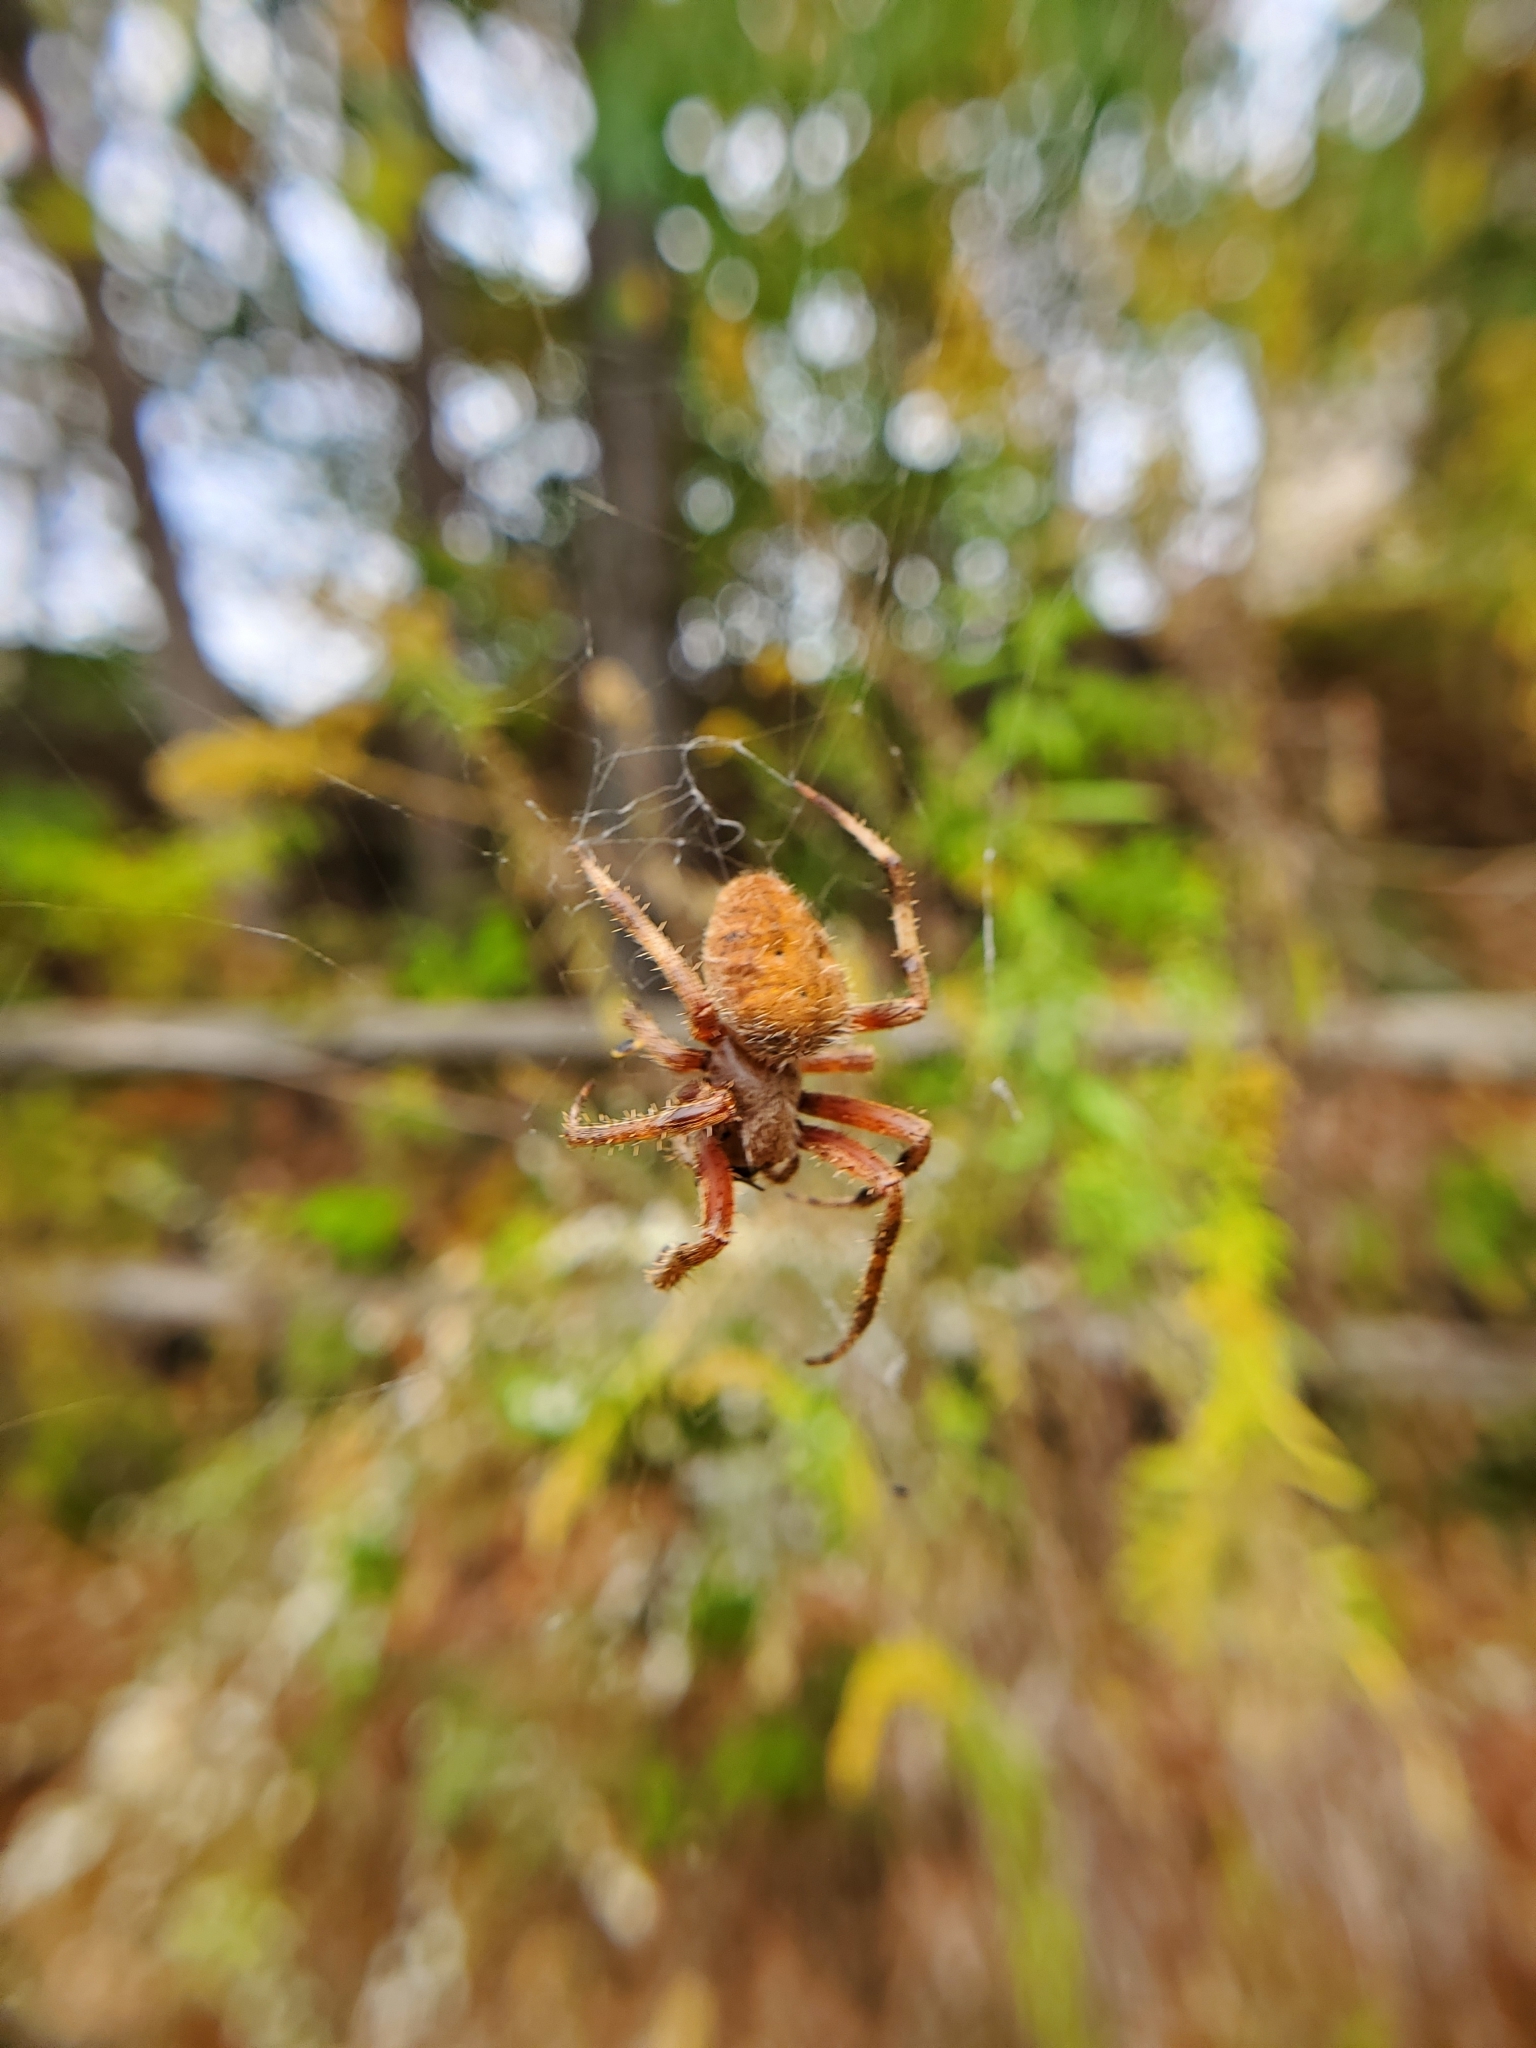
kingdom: Animalia
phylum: Arthropoda
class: Arachnida
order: Araneae
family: Araneidae
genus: Neoscona
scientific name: Neoscona crucifera
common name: Spotted orbweaver
